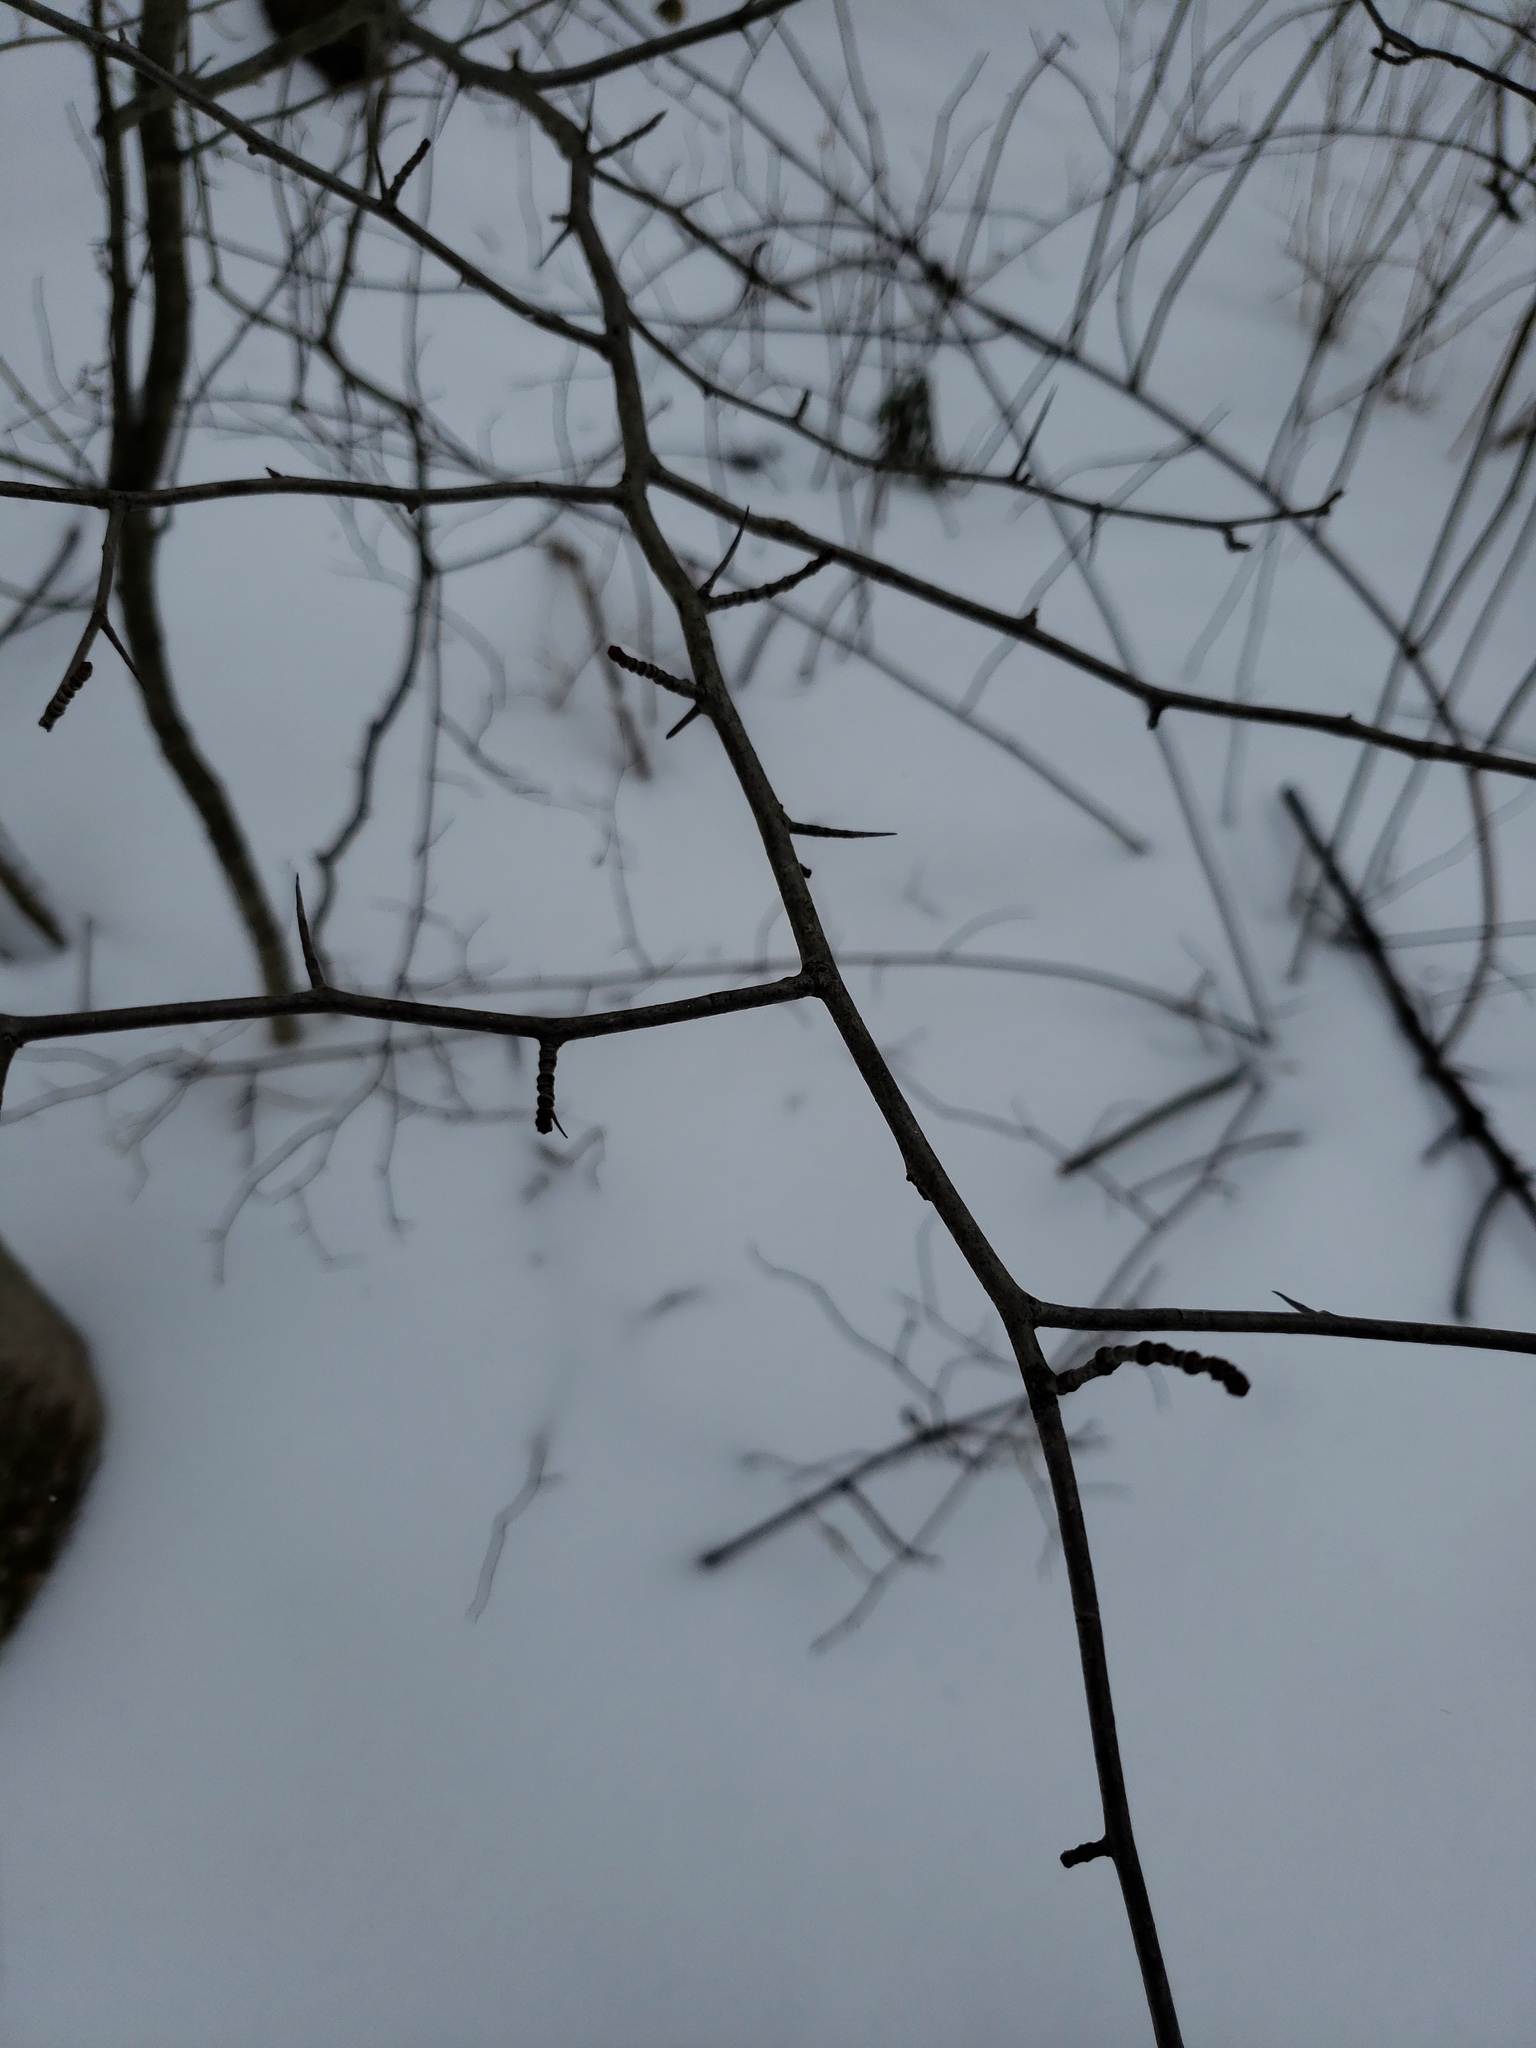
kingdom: Plantae
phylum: Tracheophyta
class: Magnoliopsida
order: Rosales
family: Rosaceae
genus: Crataegus
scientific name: Crataegus
